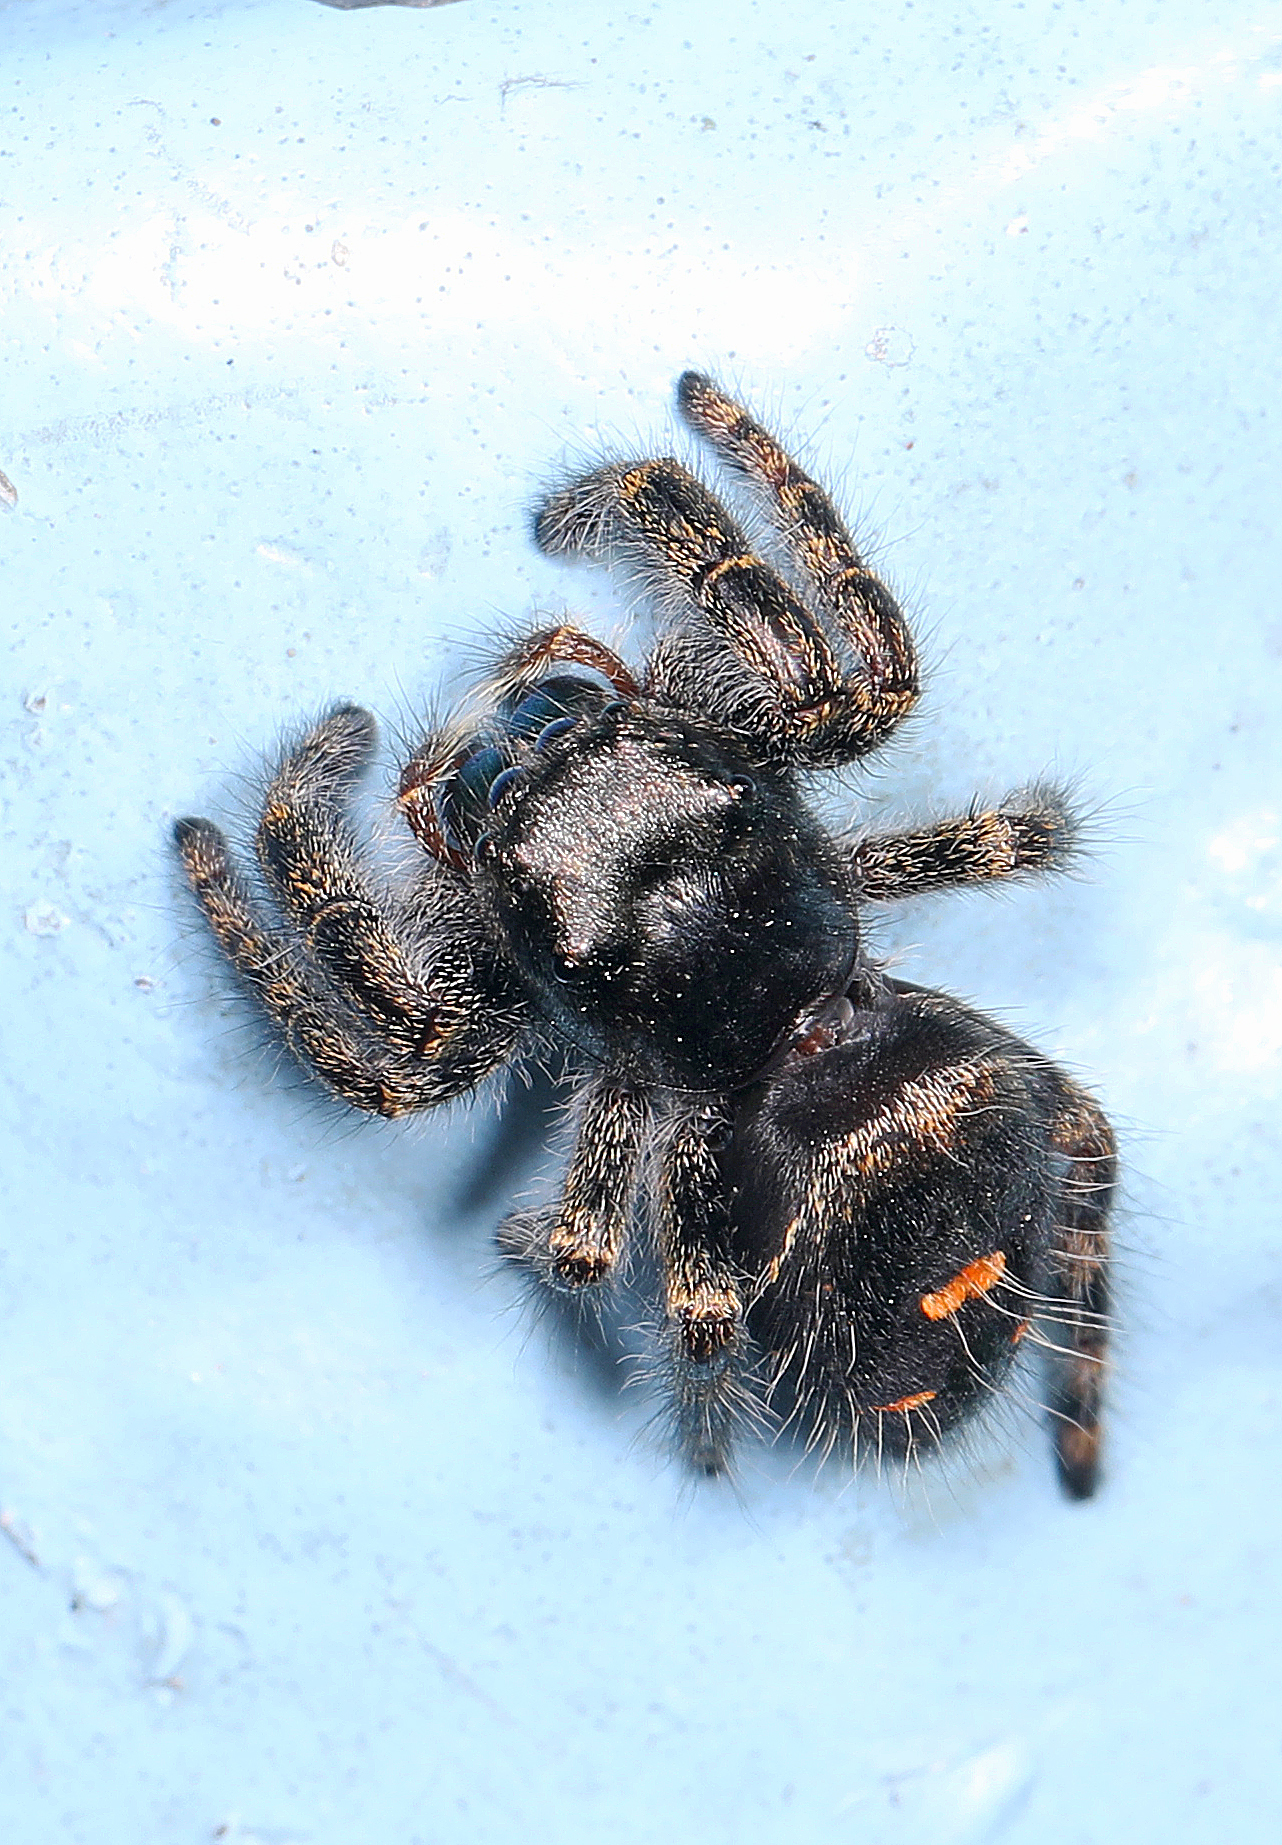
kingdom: Animalia
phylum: Arthropoda
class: Arachnida
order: Araneae
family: Salticidae
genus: Phidippus
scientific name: Phidippus audax
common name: Bold jumper
